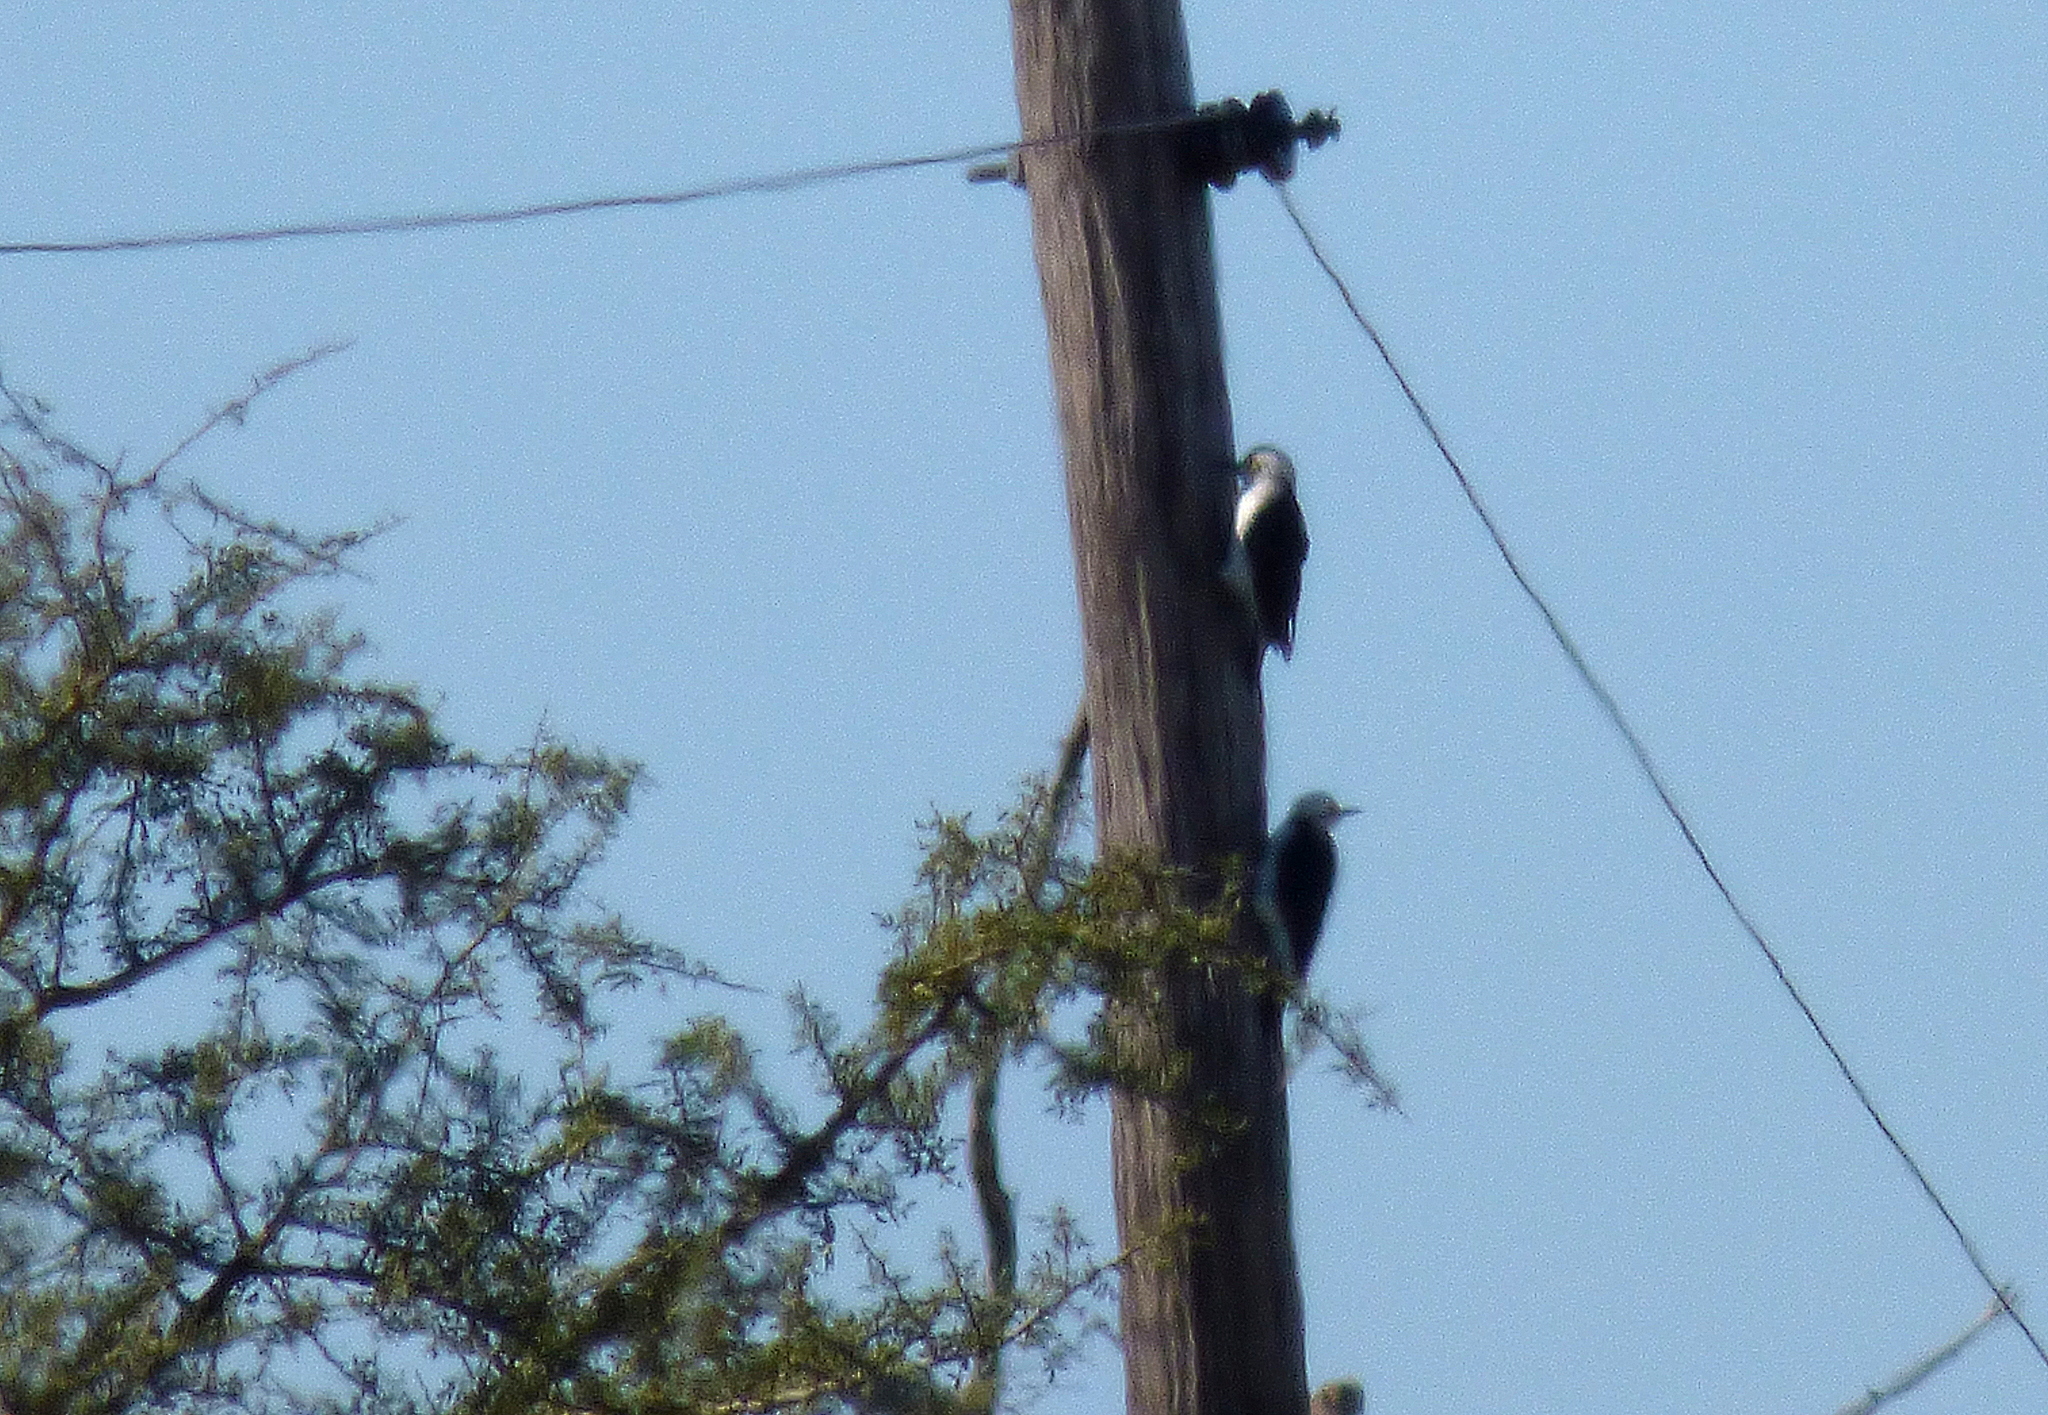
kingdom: Animalia
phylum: Chordata
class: Aves
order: Piciformes
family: Picidae
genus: Melanerpes
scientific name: Melanerpes candidus
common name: White woodpecker
